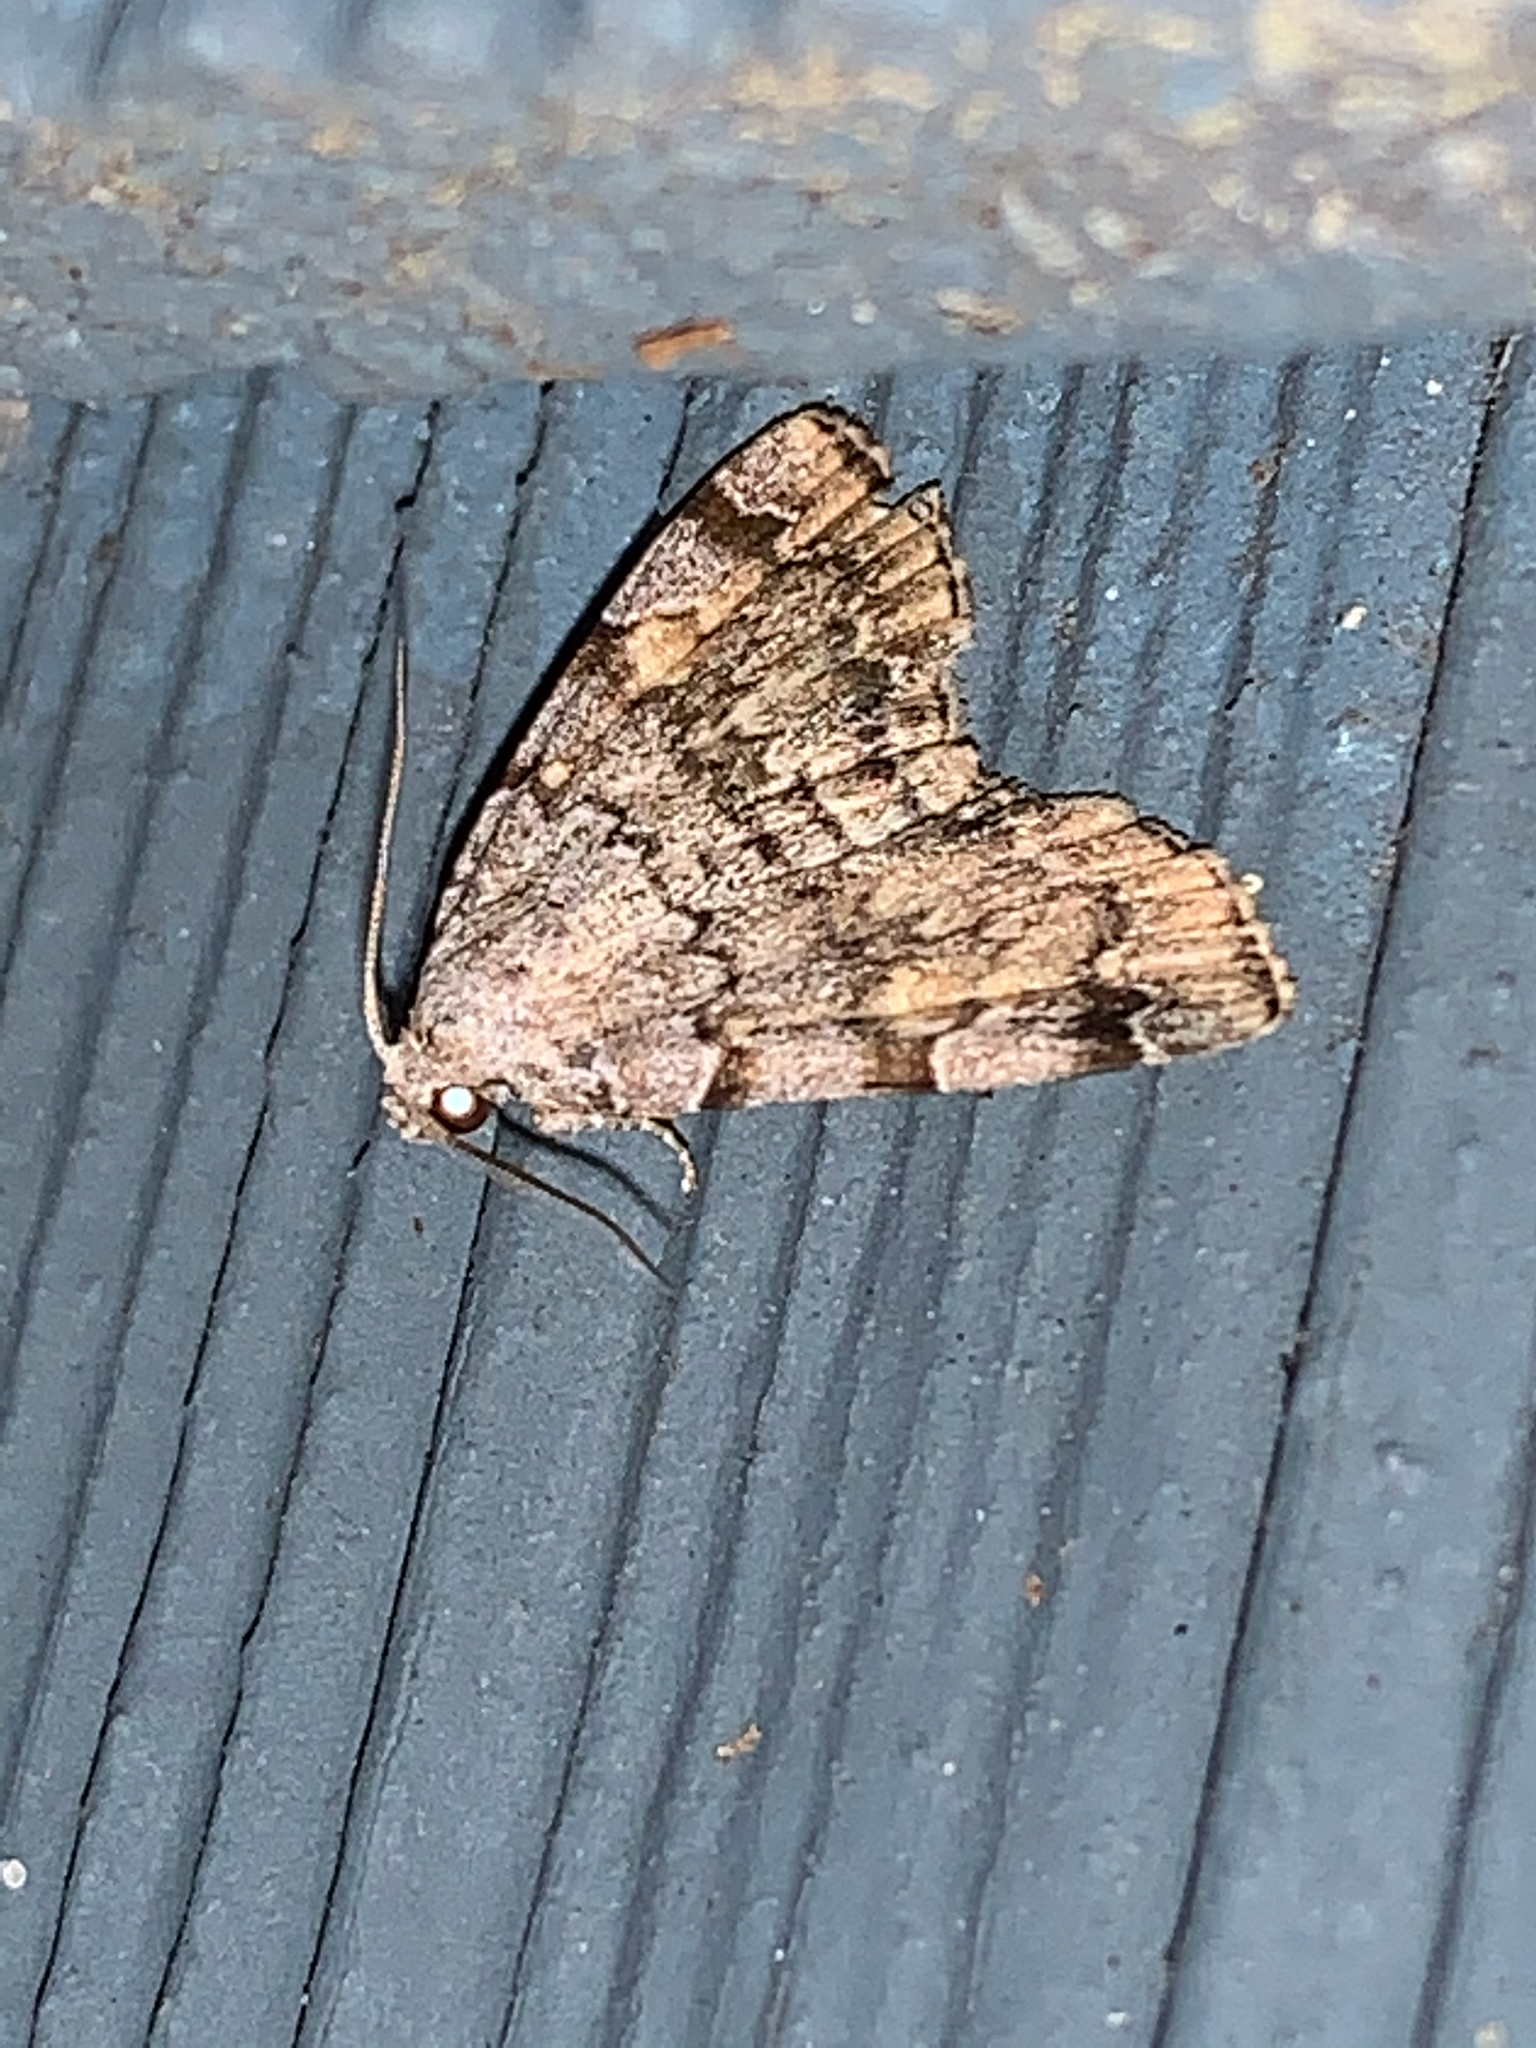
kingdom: Animalia
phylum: Arthropoda
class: Insecta
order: Lepidoptera
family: Erebidae
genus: Idia
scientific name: Idia americalis
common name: American idia moth
